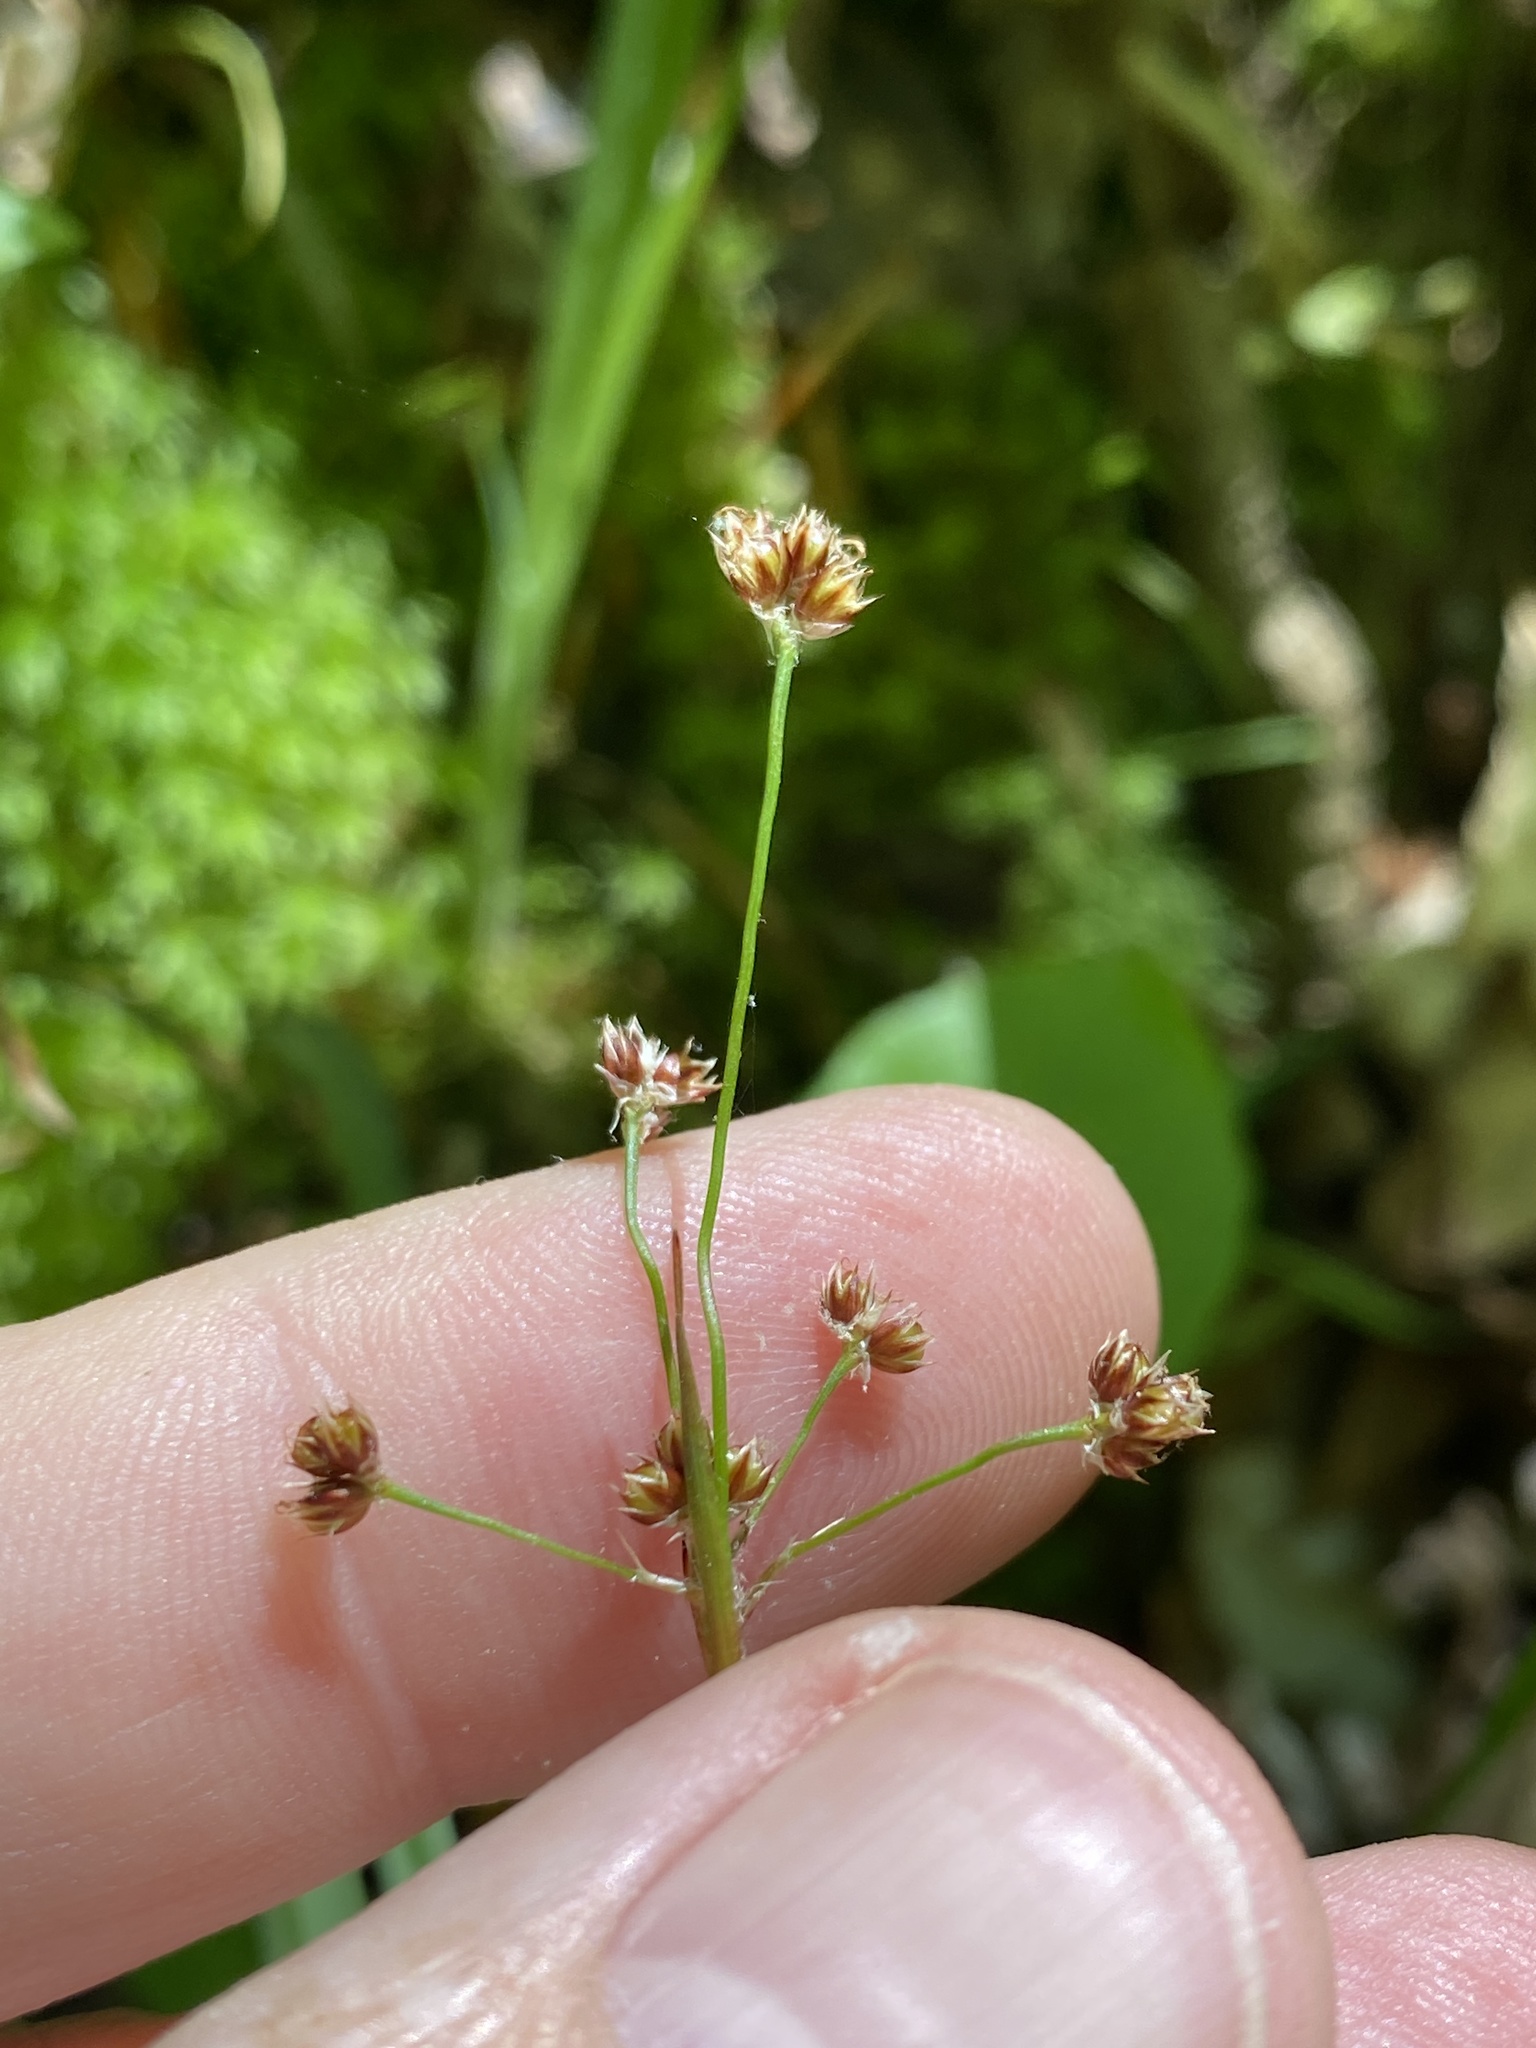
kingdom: Plantae
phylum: Tracheophyta
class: Liliopsida
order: Poales
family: Juncaceae
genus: Luzula
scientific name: Luzula echinata
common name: Hedgehog woodrush
